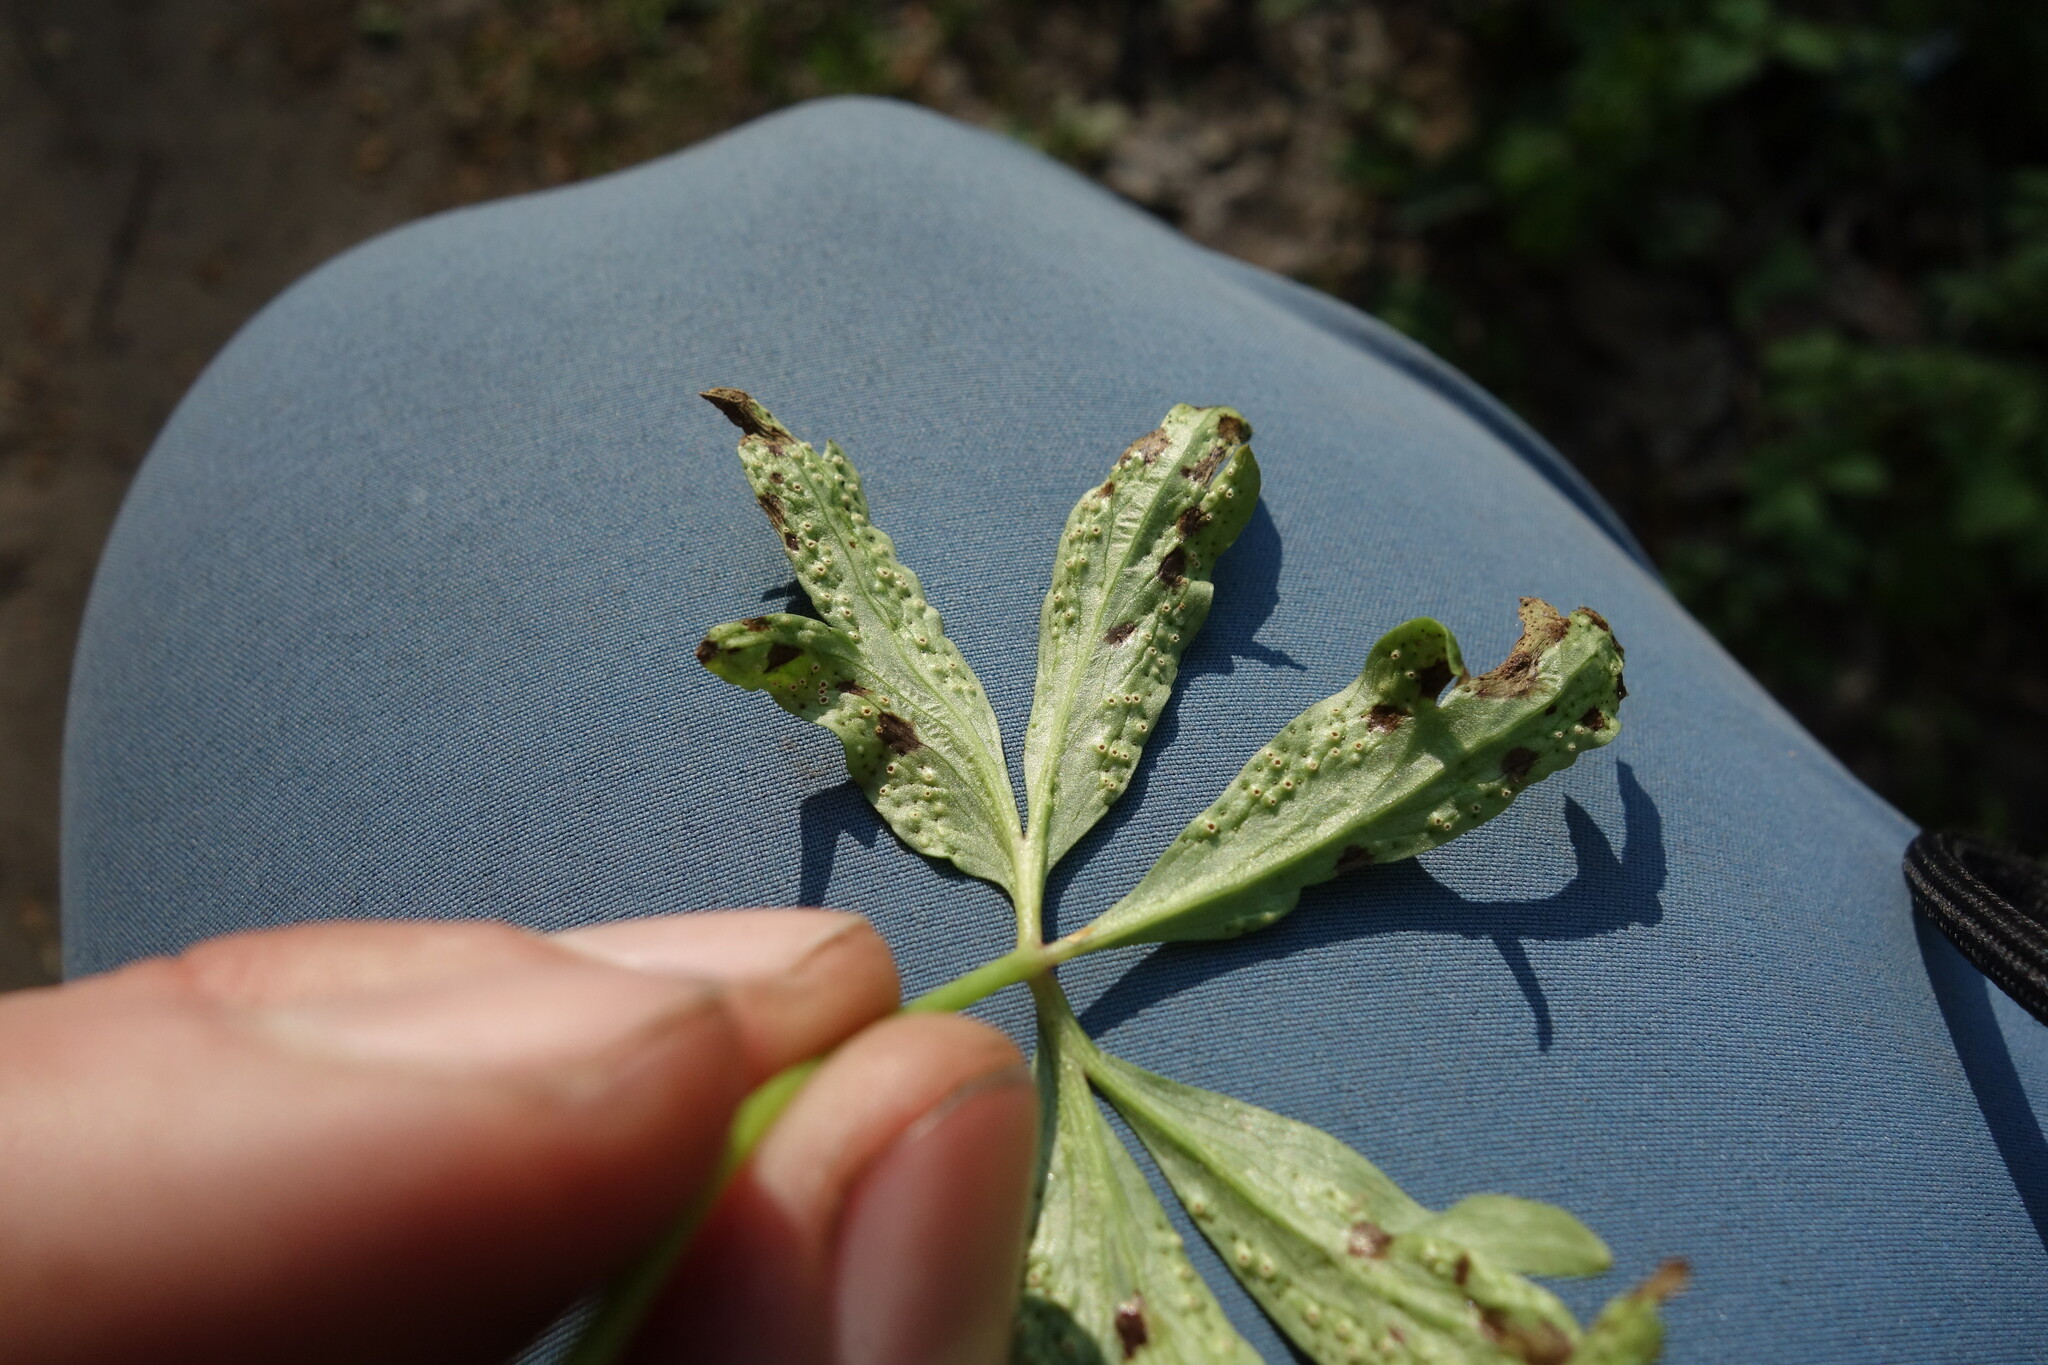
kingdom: Fungi
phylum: Basidiomycota
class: Pucciniomycetes
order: Pucciniales
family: Tranzscheliaceae
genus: Tranzschelia
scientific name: Tranzschelia pruni-spinosae
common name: Blackthorn rust
